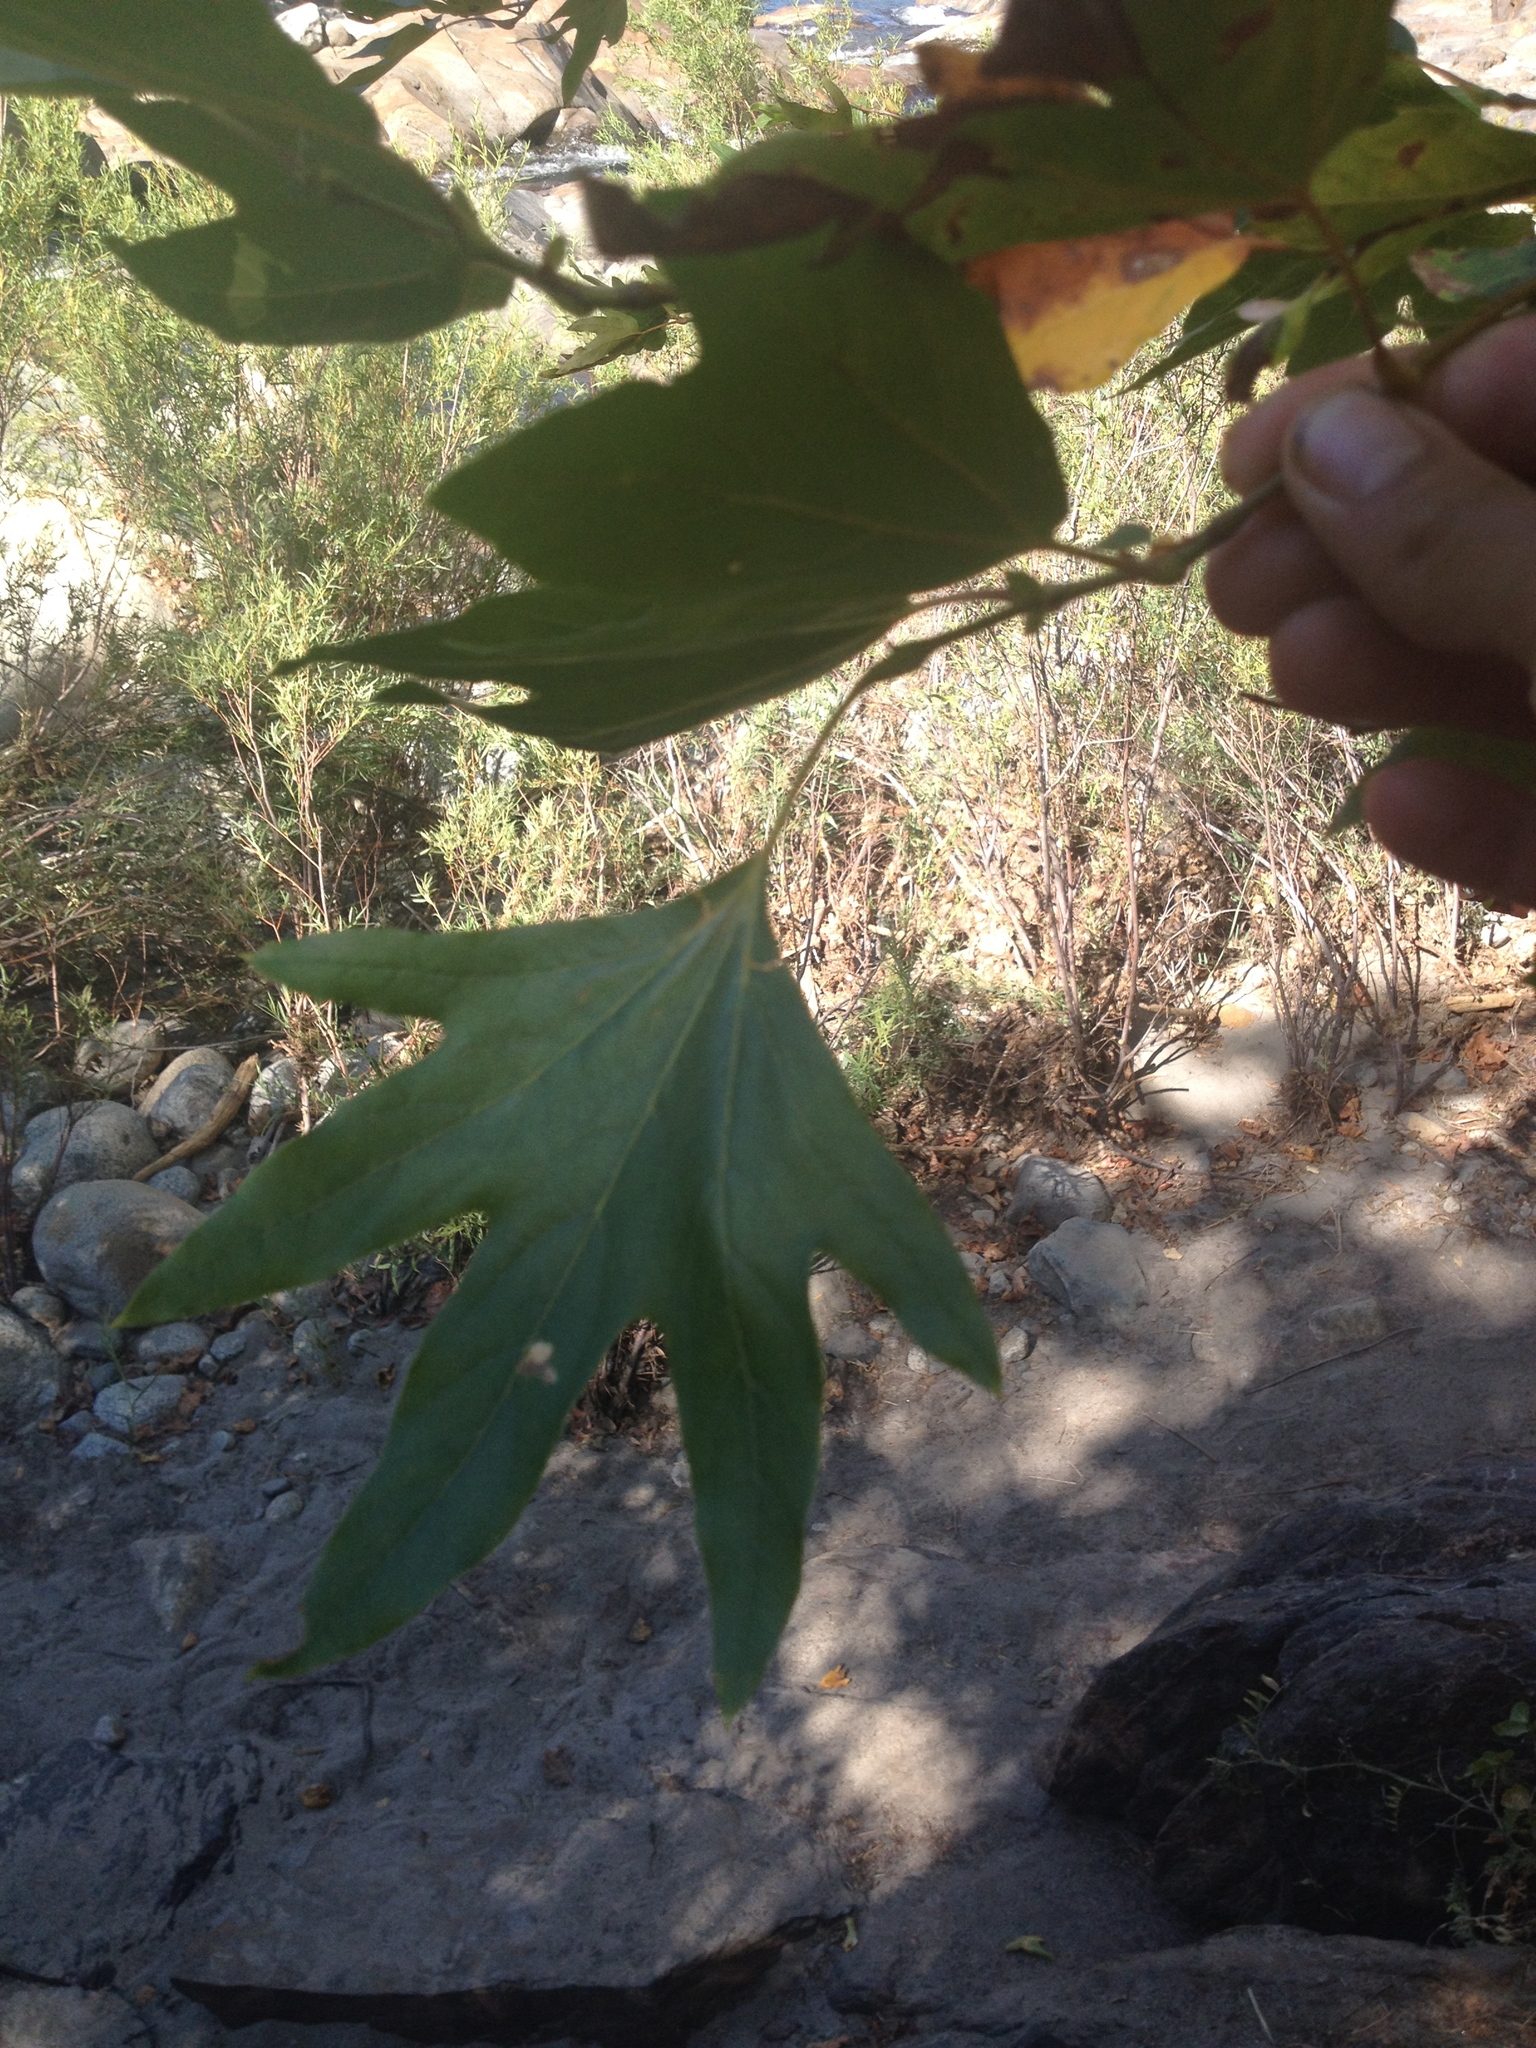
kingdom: Plantae
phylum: Tracheophyta
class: Magnoliopsida
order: Proteales
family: Platanaceae
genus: Platanus
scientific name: Platanus racemosa
